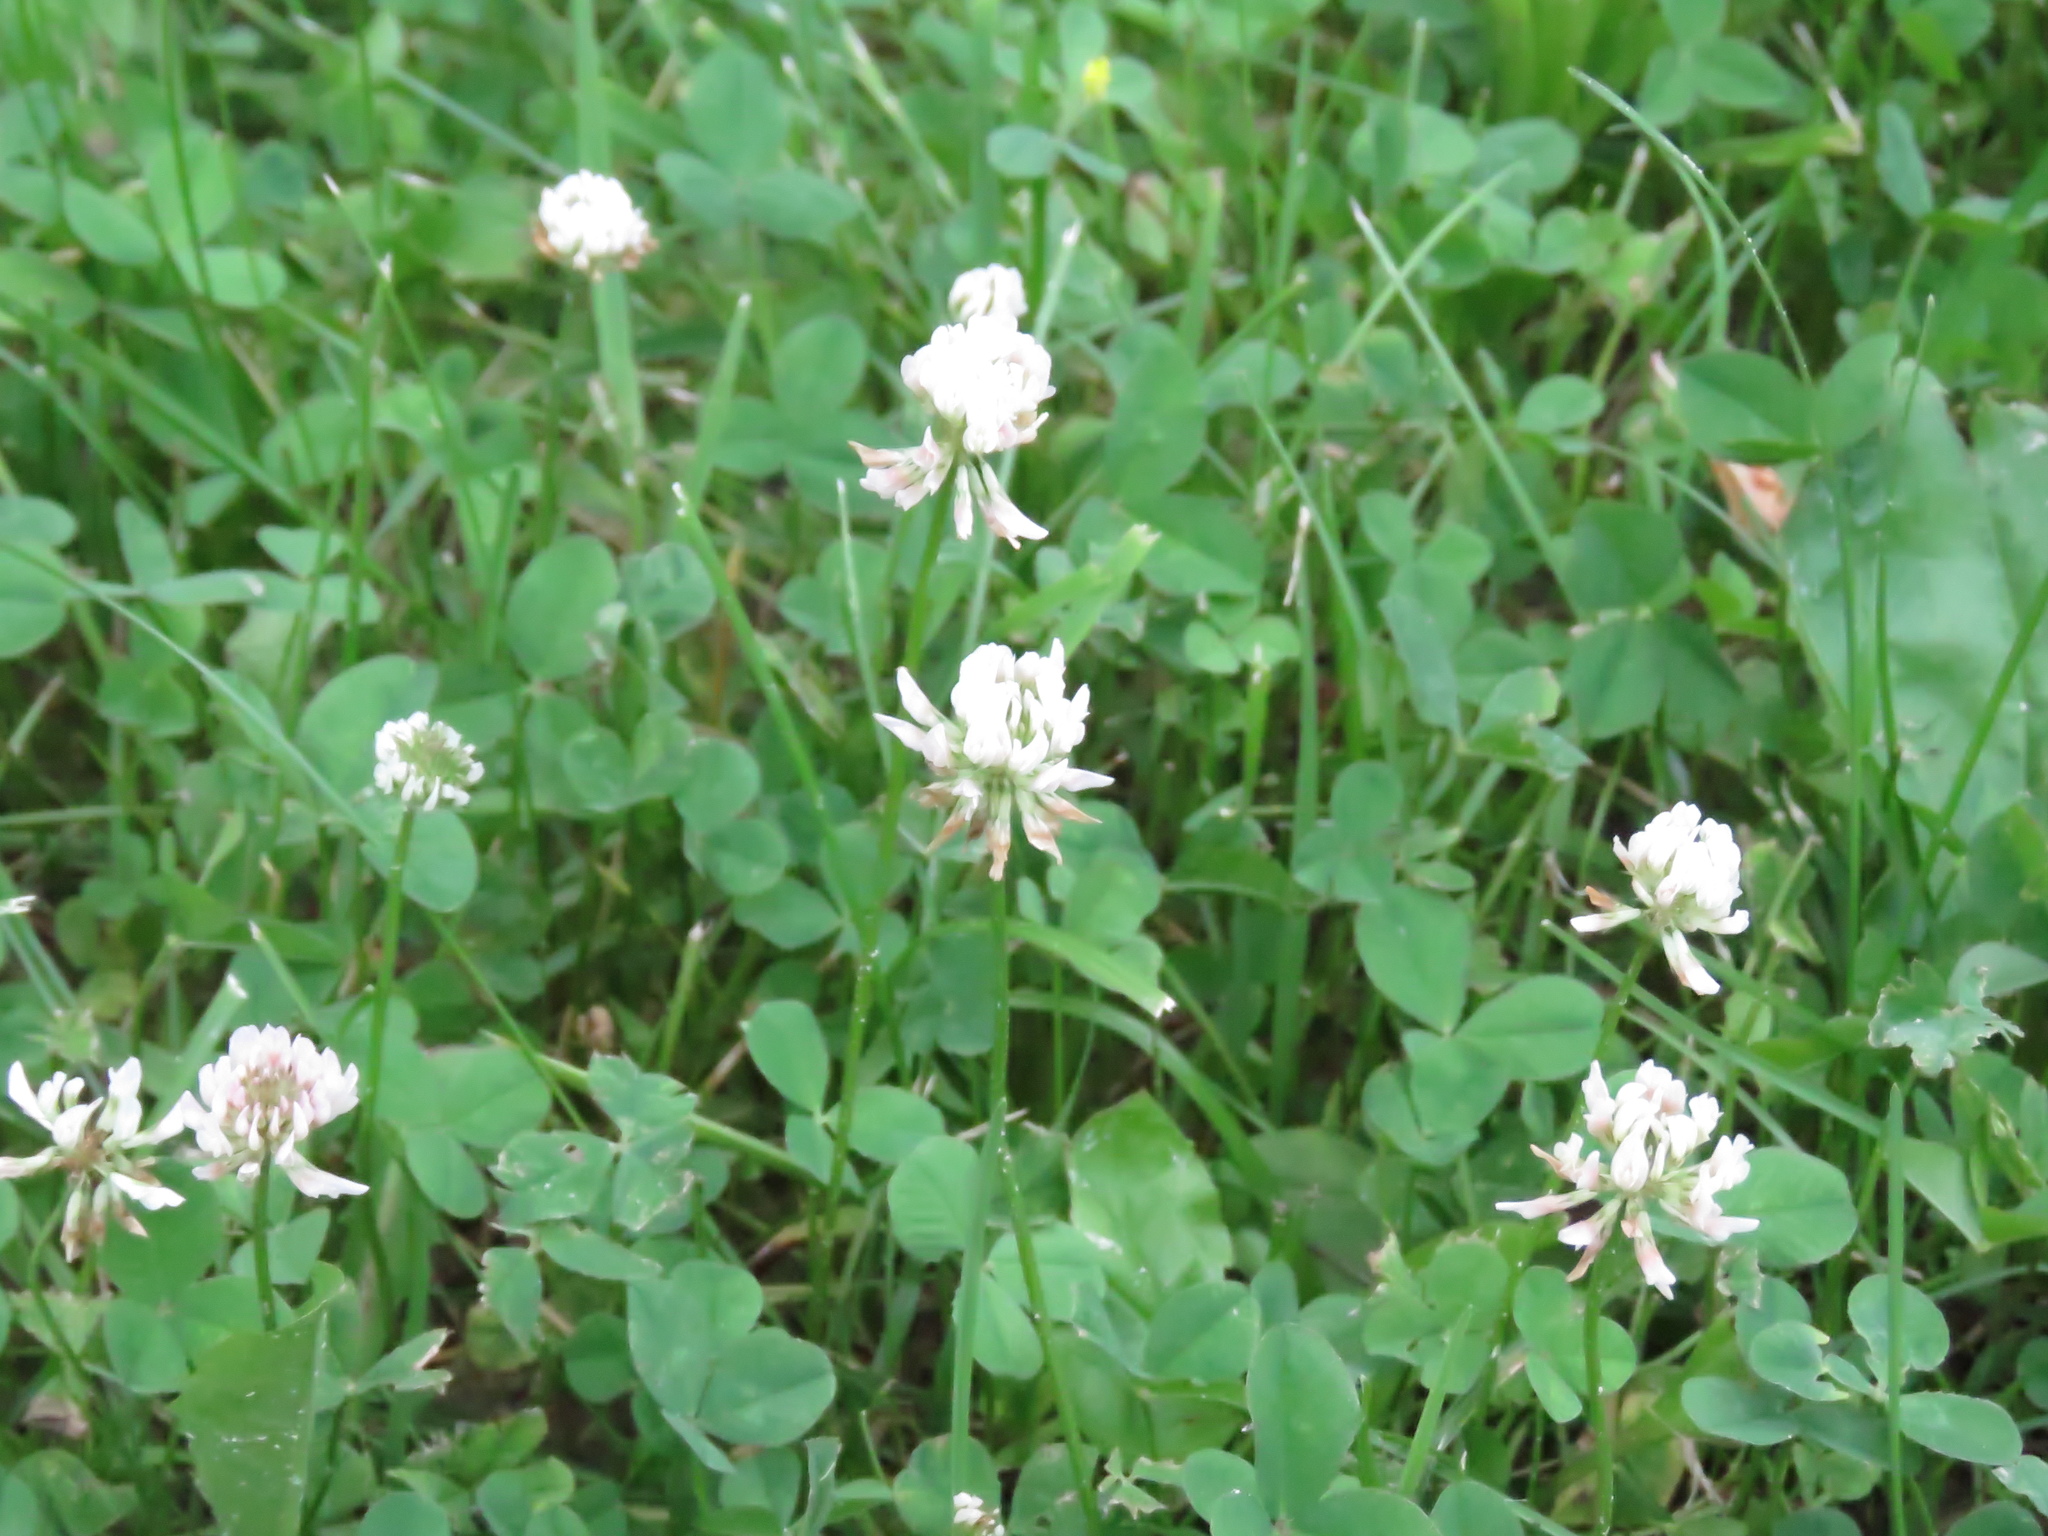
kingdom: Plantae
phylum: Tracheophyta
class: Magnoliopsida
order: Fabales
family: Fabaceae
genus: Trifolium
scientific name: Trifolium repens
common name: White clover
